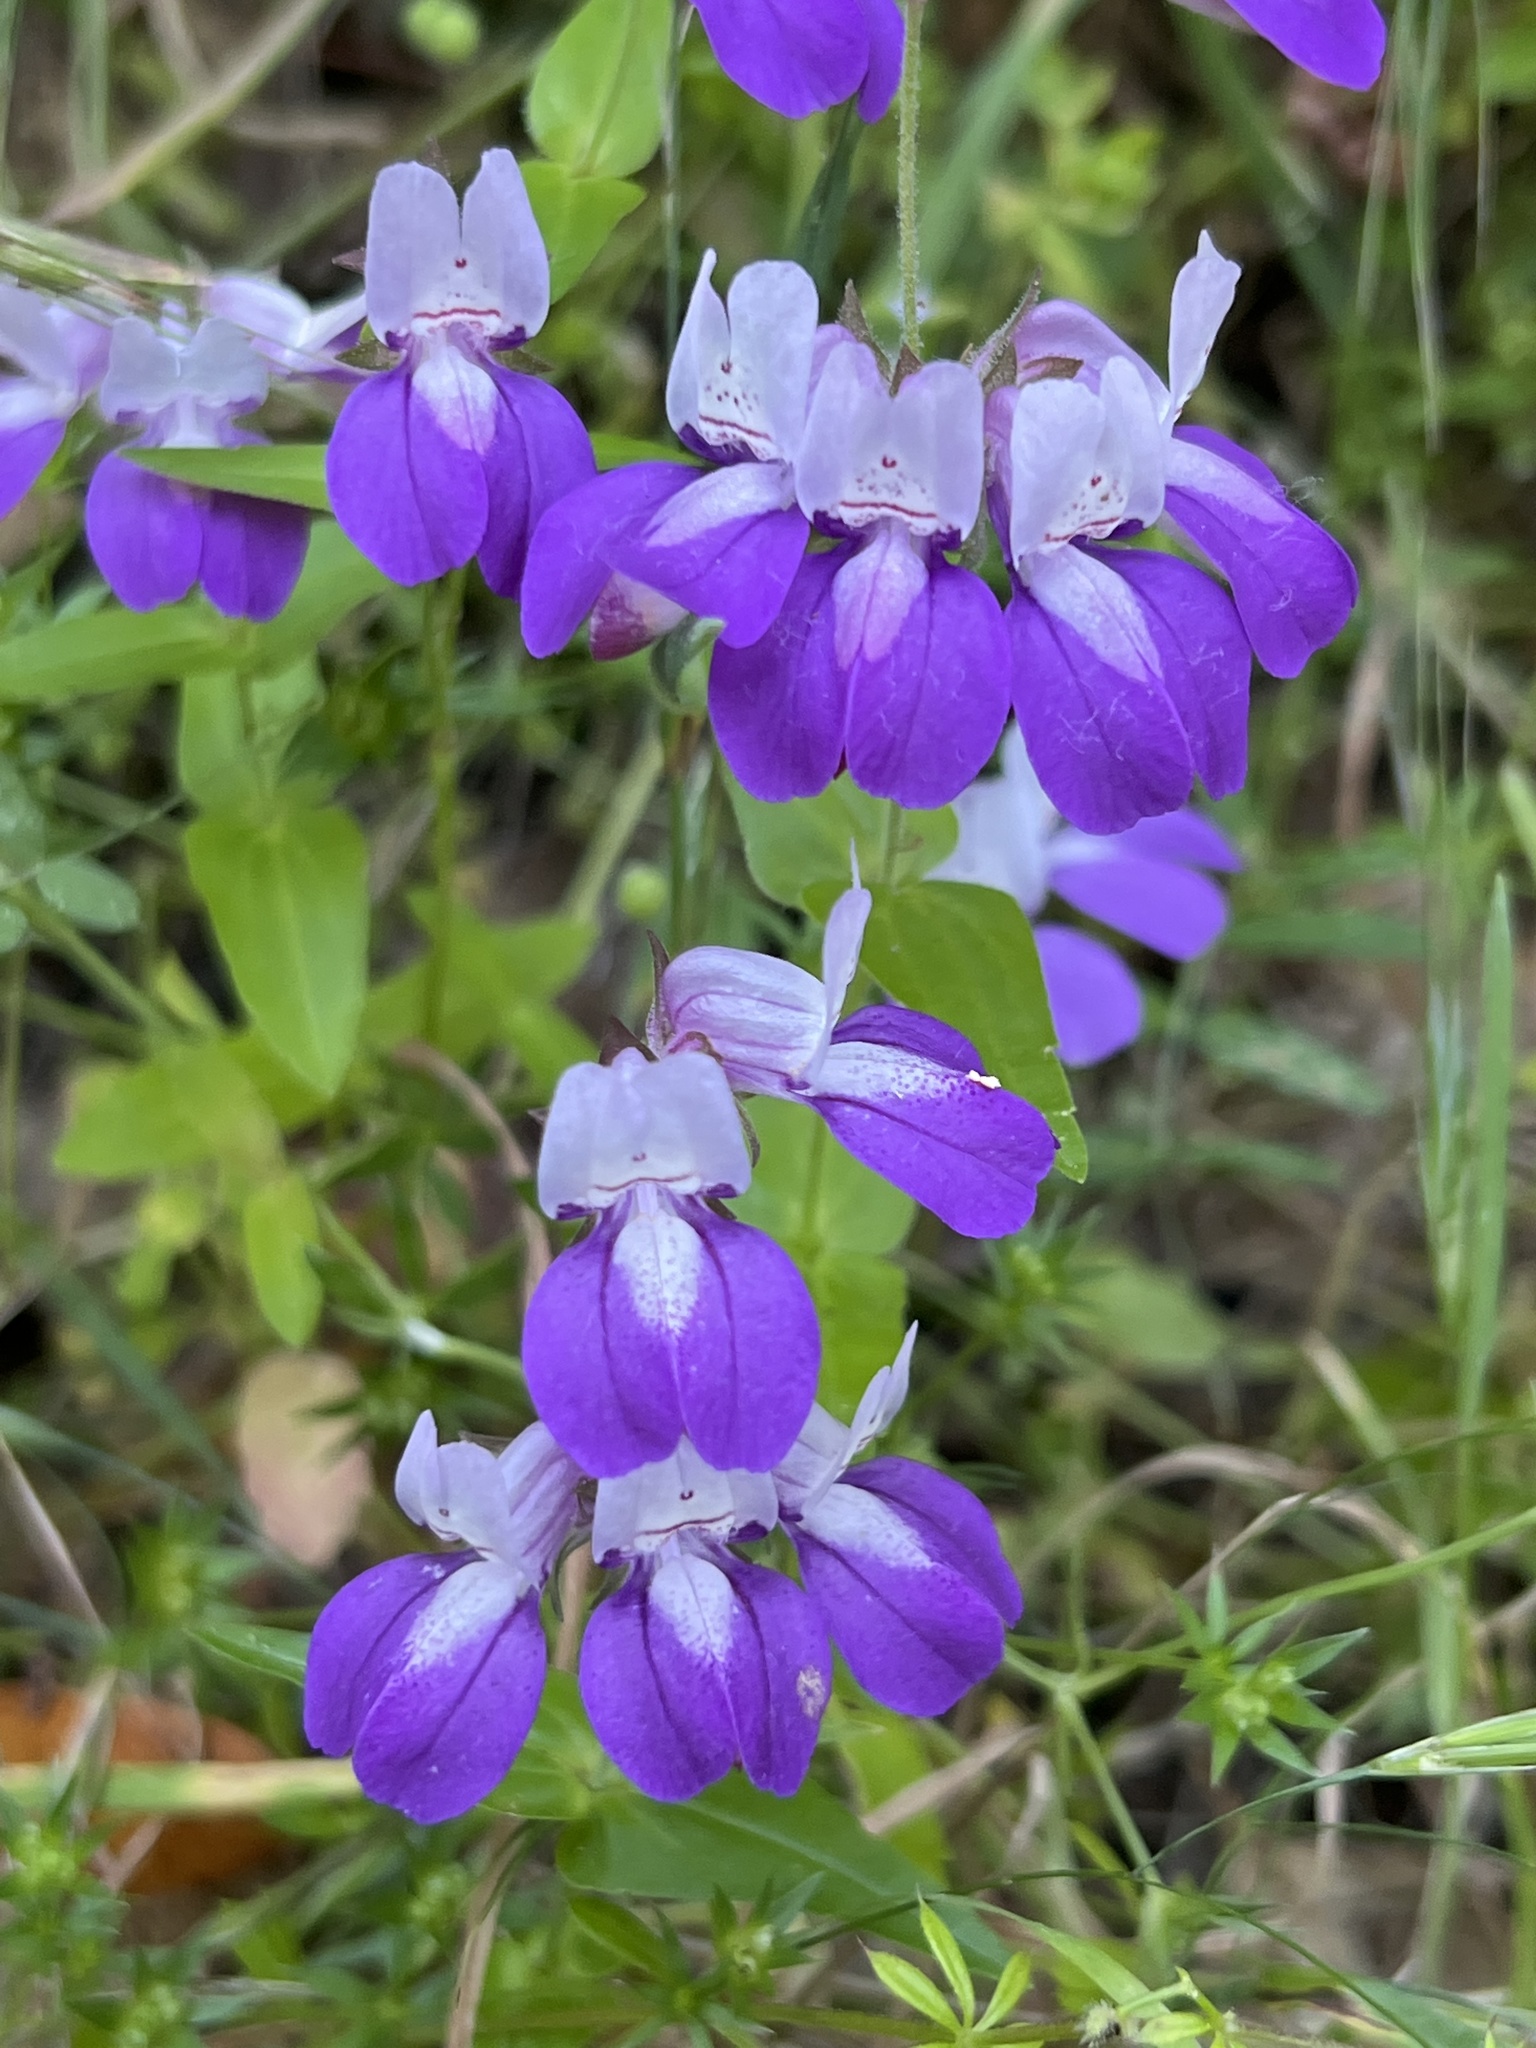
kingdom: Plantae
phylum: Tracheophyta
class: Magnoliopsida
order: Lamiales
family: Plantaginaceae
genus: Collinsia
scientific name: Collinsia heterophylla
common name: Chinese-houses
